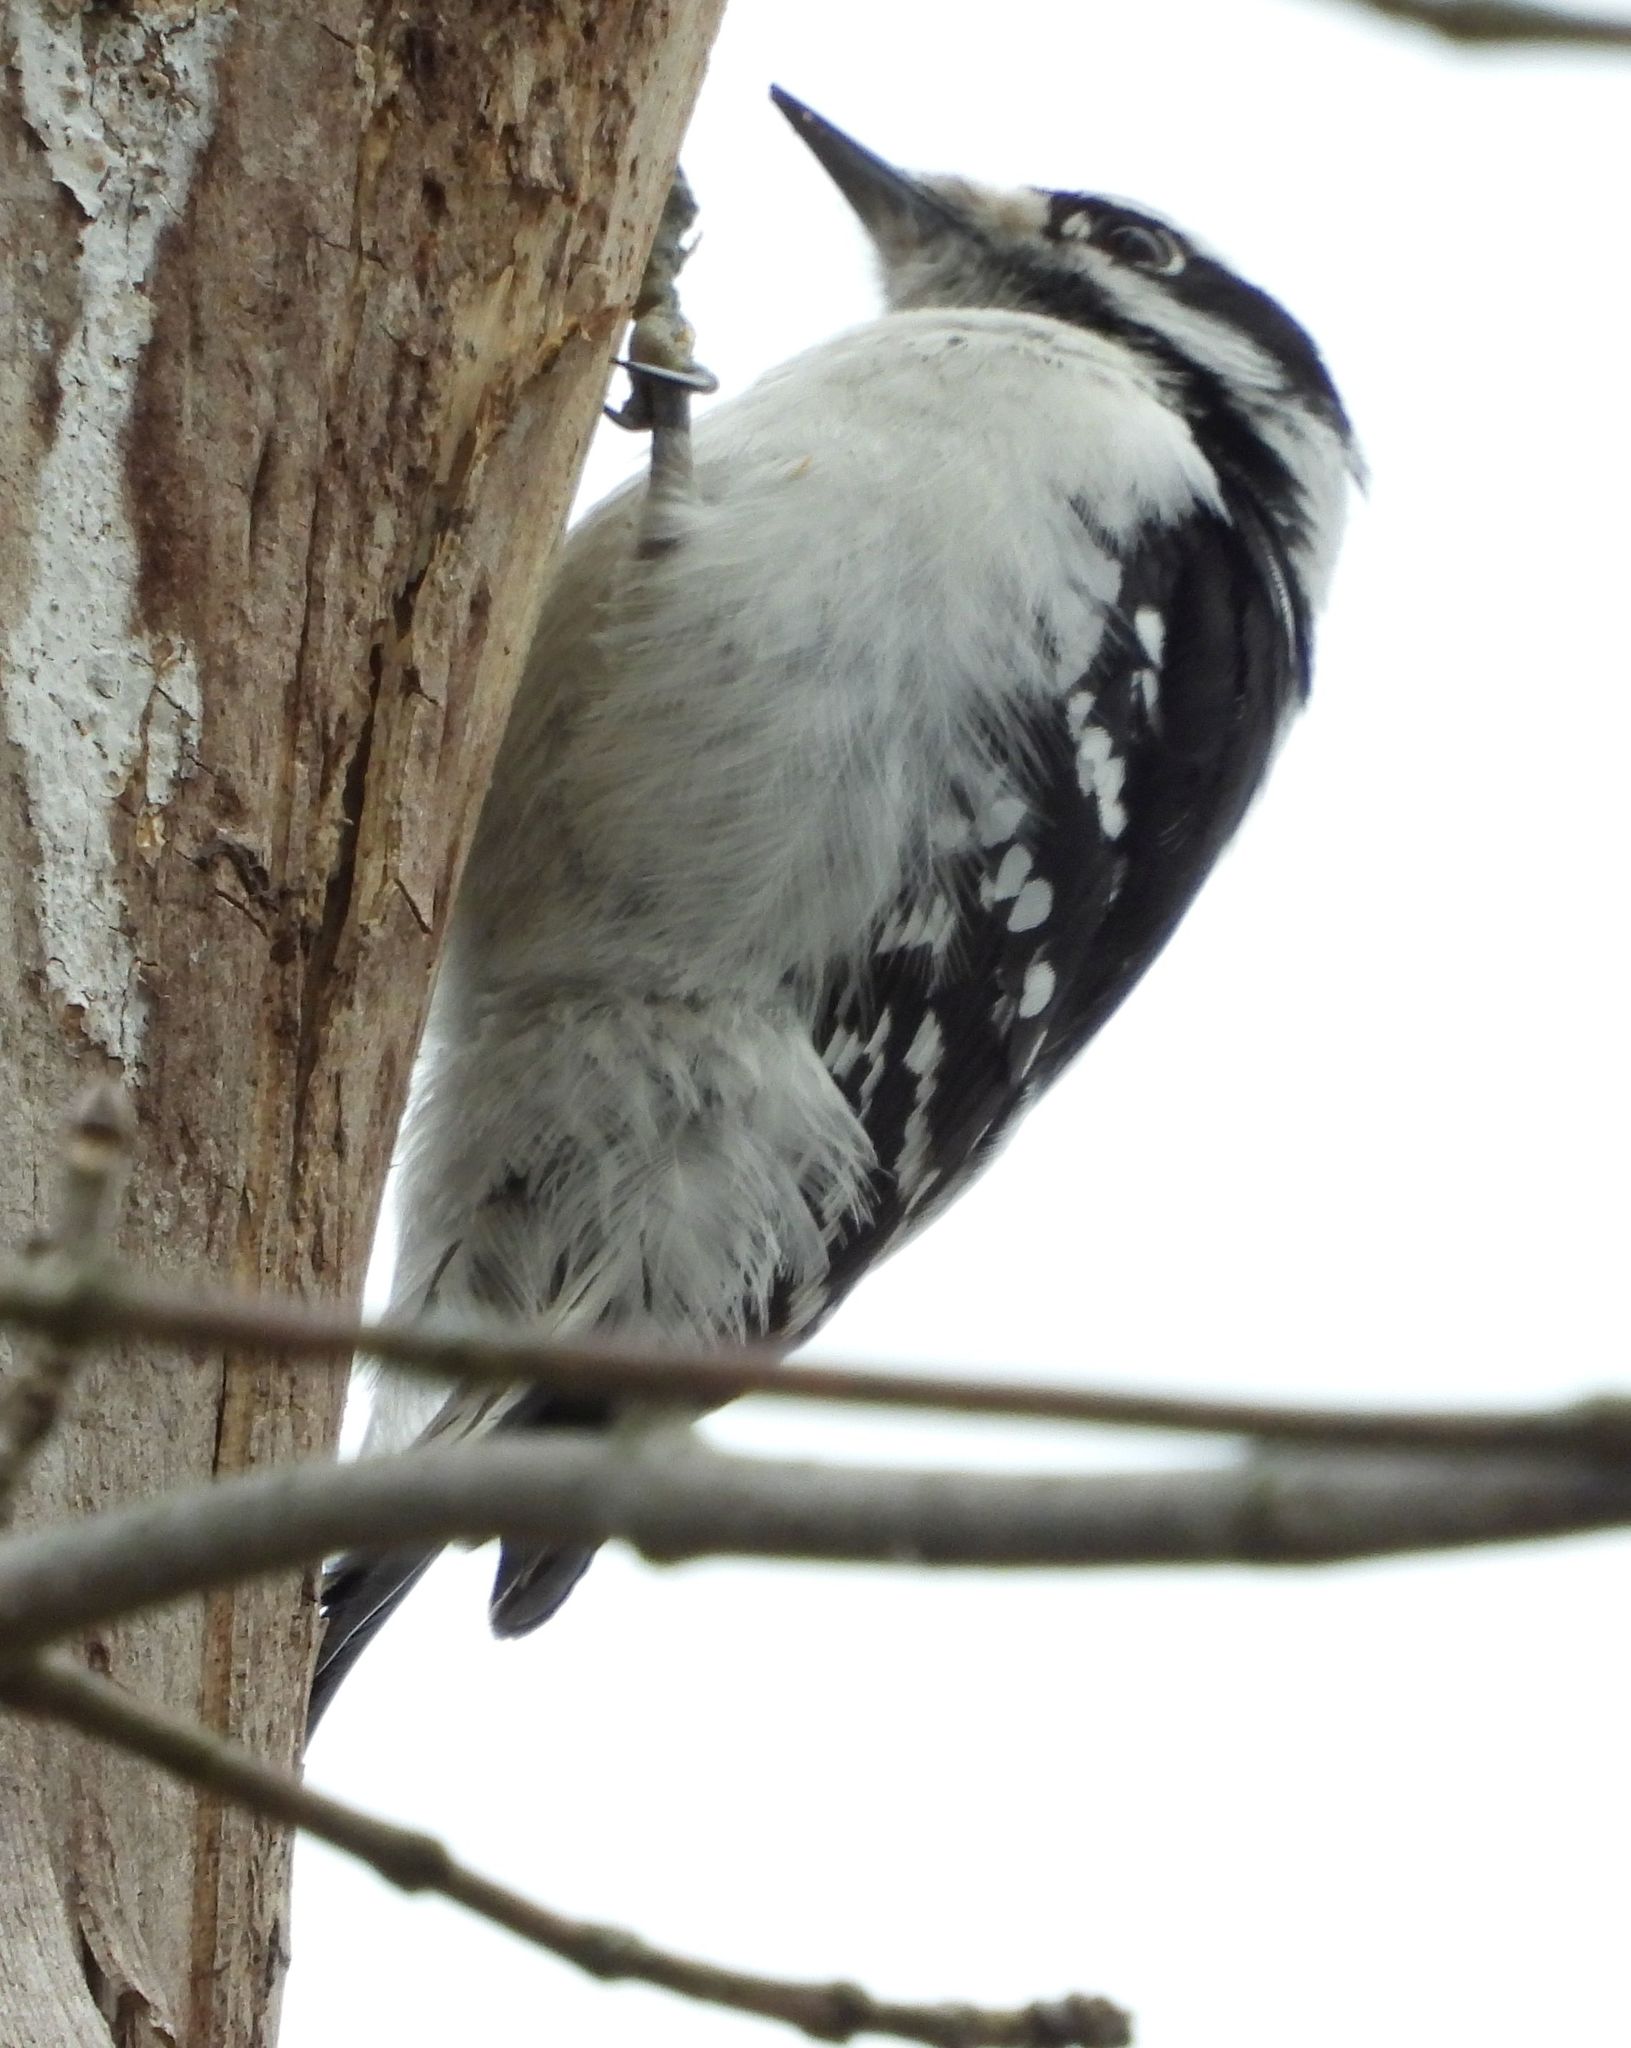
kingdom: Animalia
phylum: Chordata
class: Aves
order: Piciformes
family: Picidae
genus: Dryobates
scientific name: Dryobates pubescens
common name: Downy woodpecker
